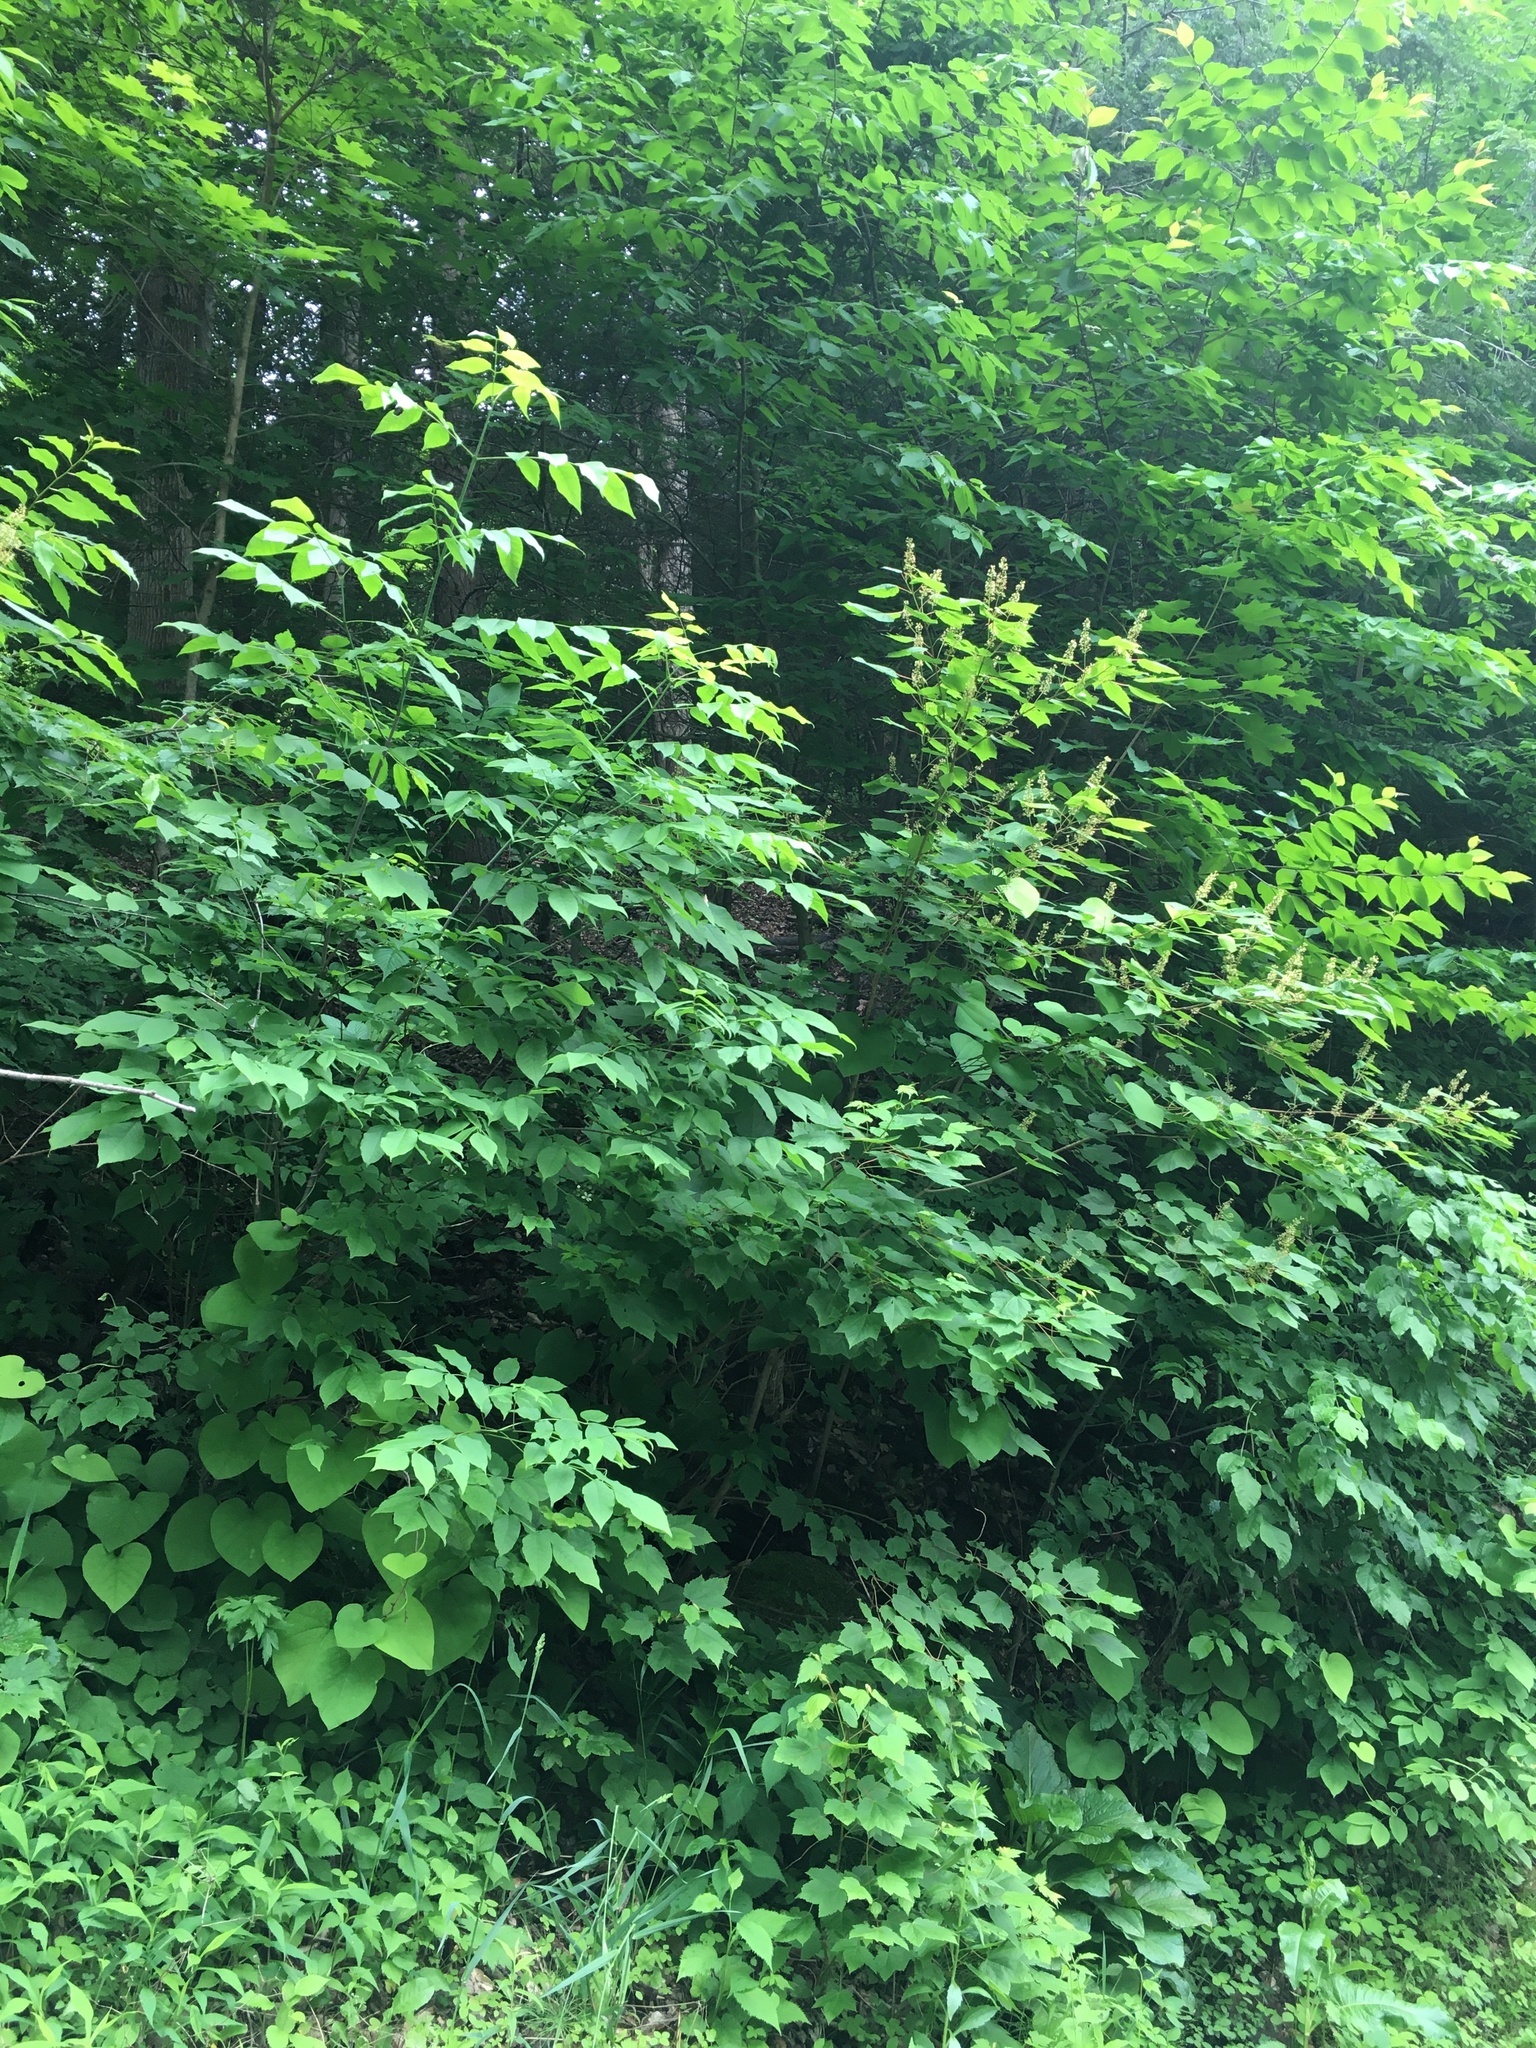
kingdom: Plantae
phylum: Tracheophyta
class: Magnoliopsida
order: Sapindales
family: Sapindaceae
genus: Acer
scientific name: Acer spicatum
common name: Mountain maple
